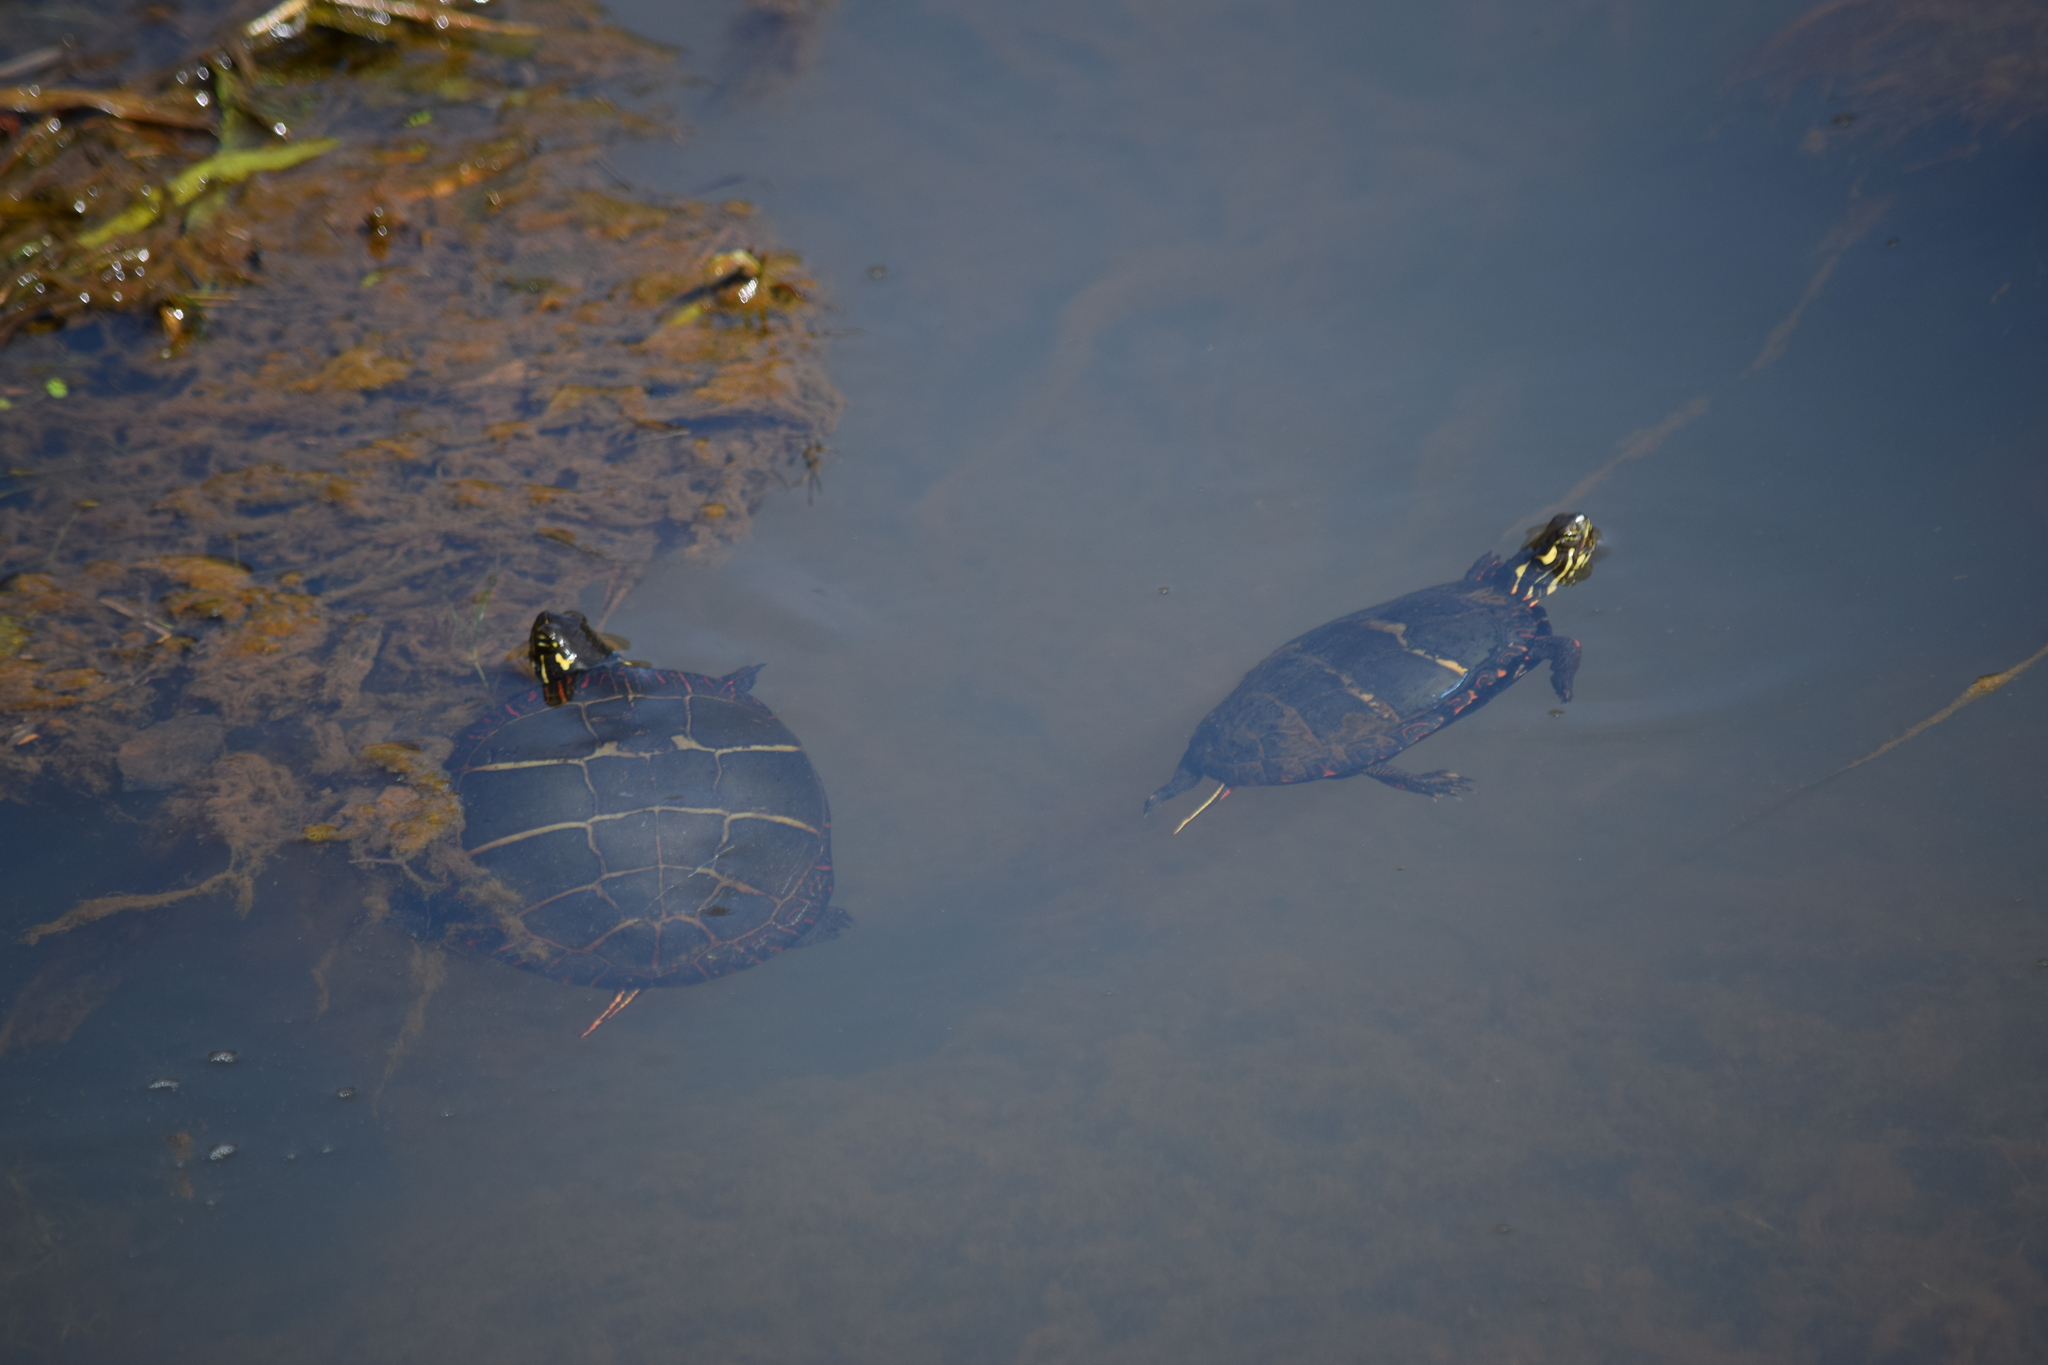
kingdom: Animalia
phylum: Chordata
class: Testudines
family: Emydidae
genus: Chrysemys
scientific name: Chrysemys picta
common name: Painted turtle
